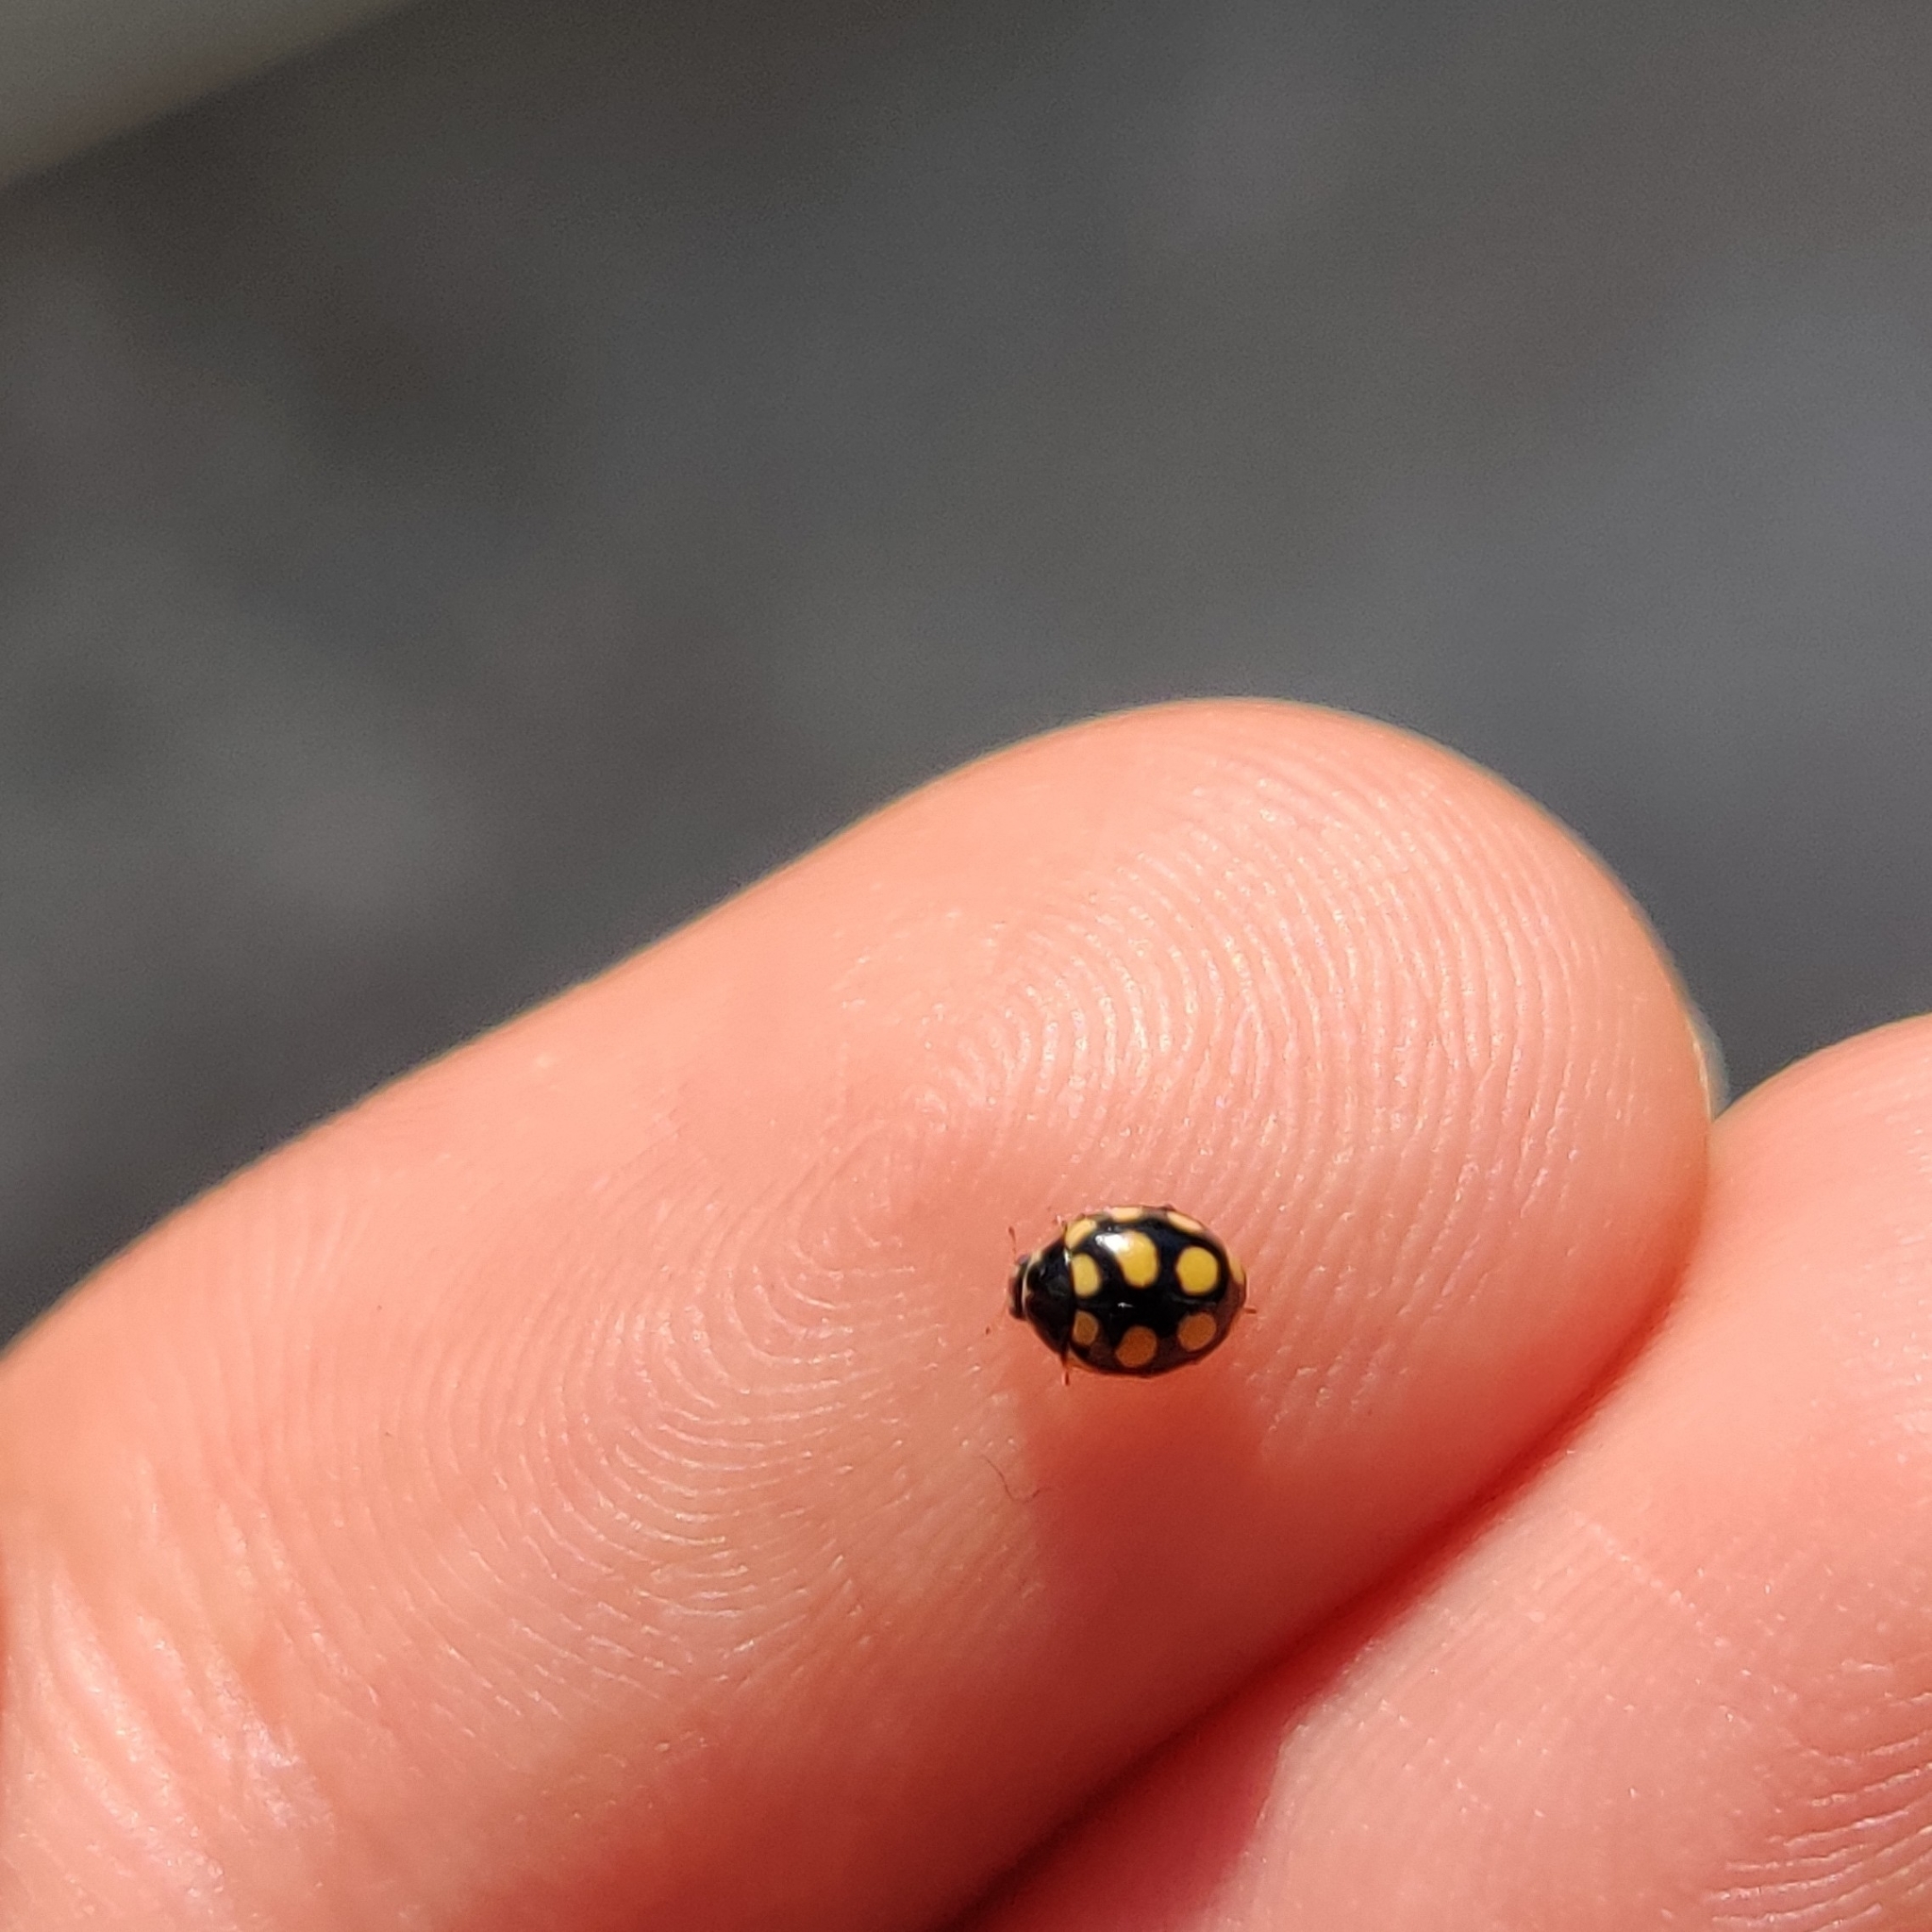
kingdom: Animalia
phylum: Arthropoda
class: Insecta
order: Coleoptera
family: Coccinellidae
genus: Coccinula
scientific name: Coccinula quatuordecimpustulata
